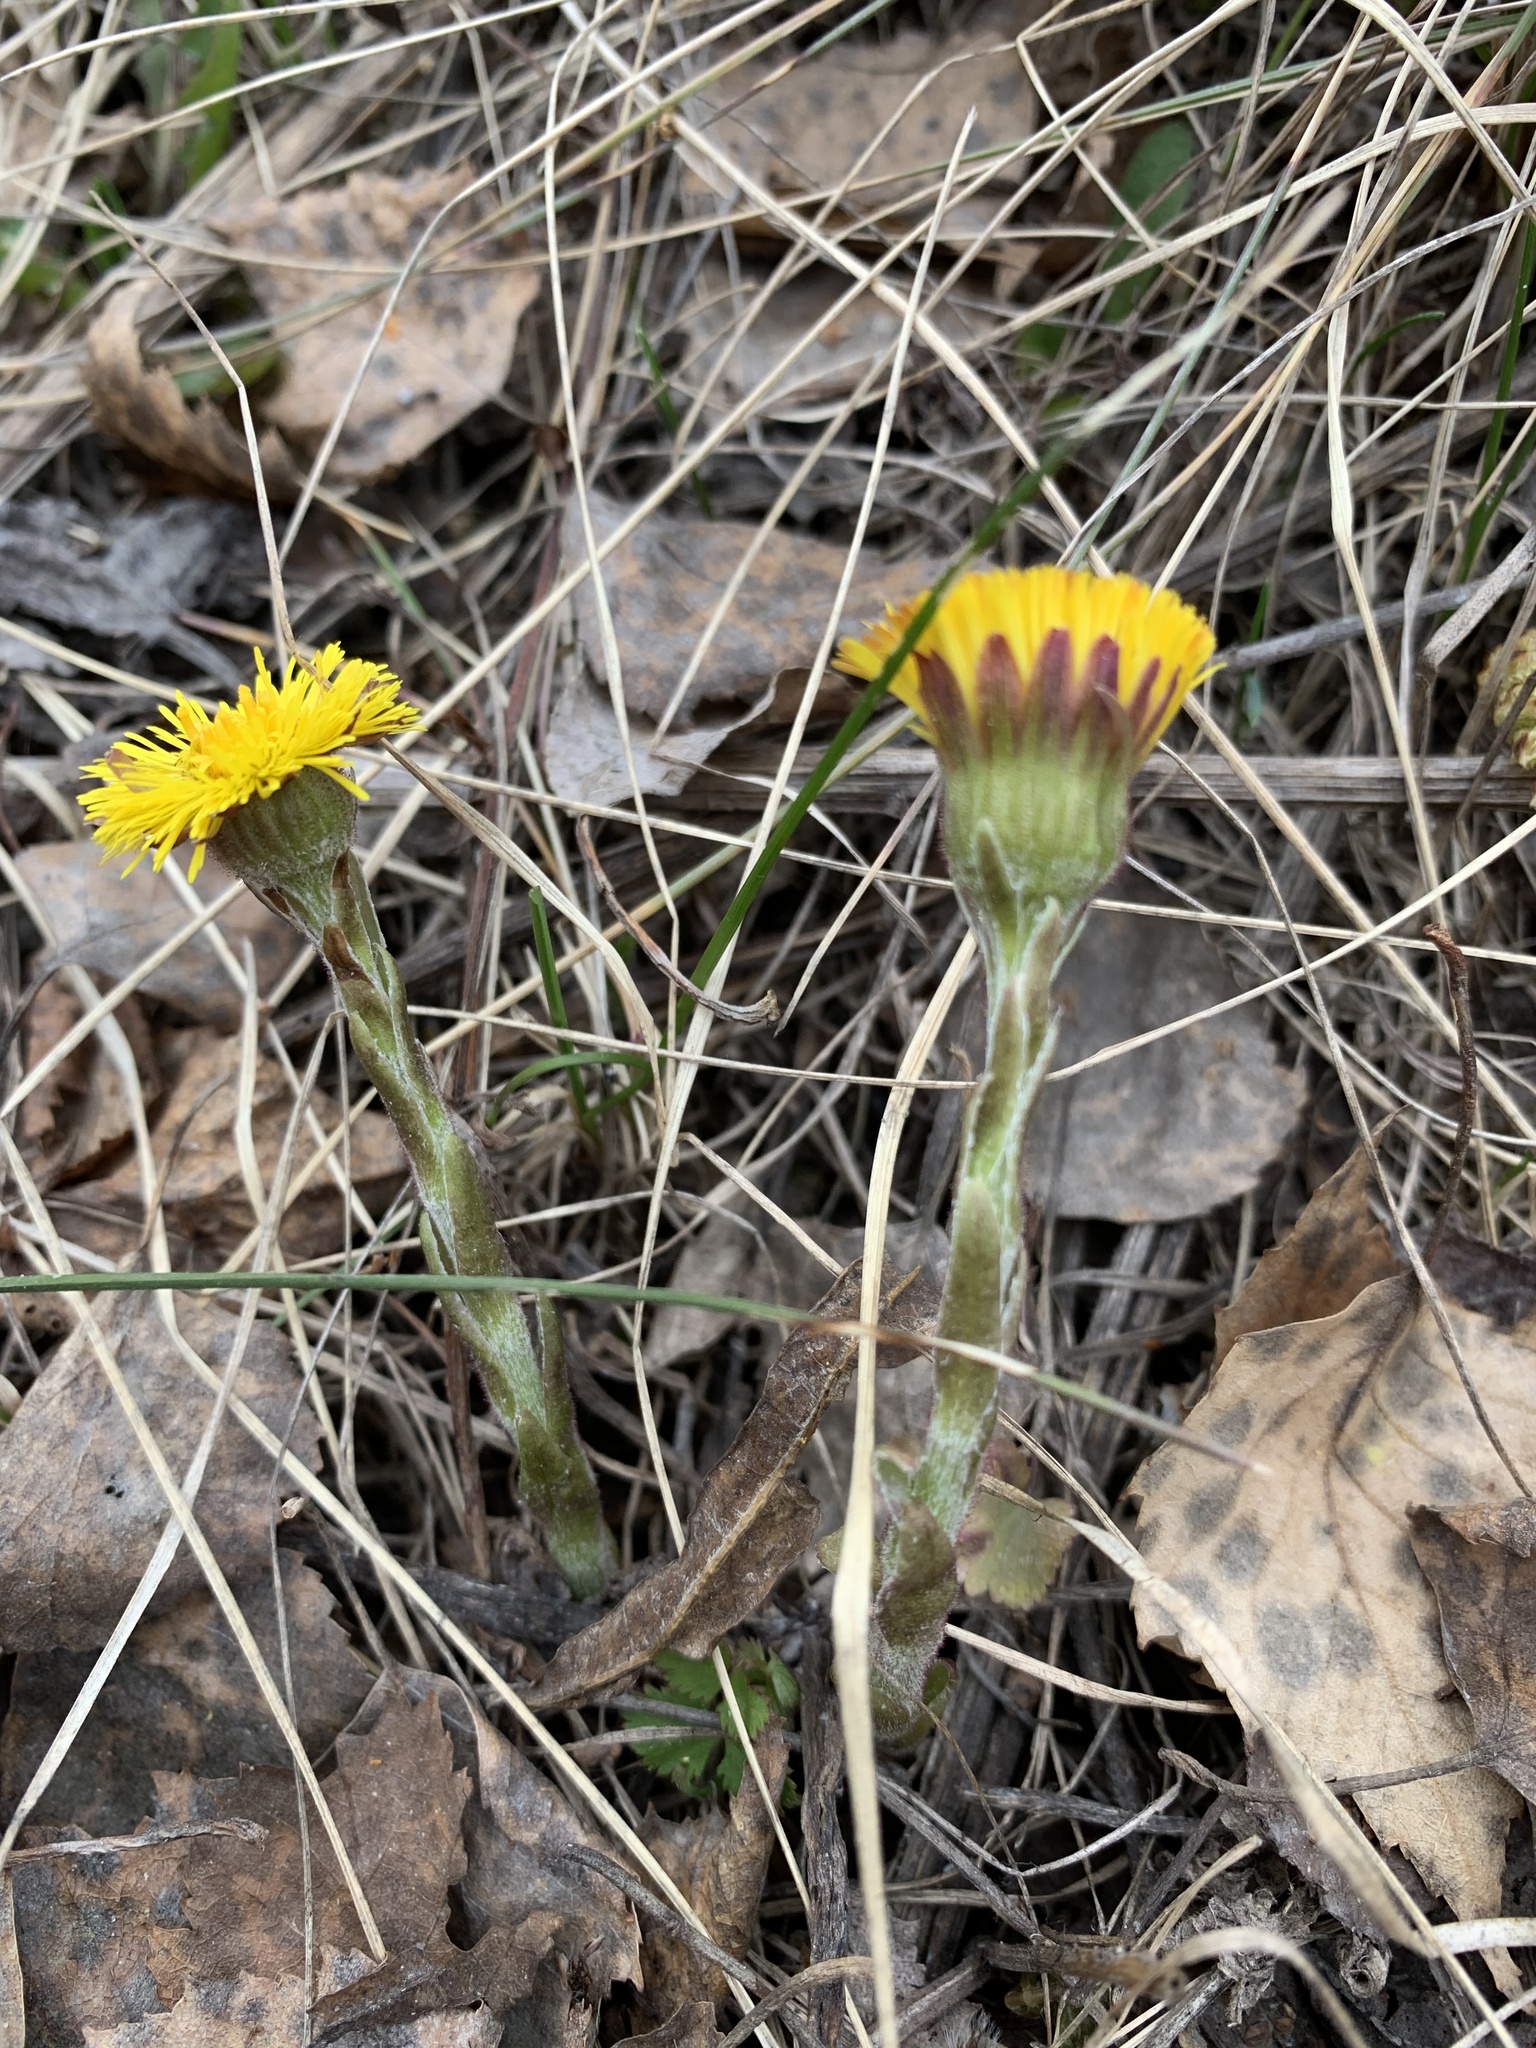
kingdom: Plantae
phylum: Tracheophyta
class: Magnoliopsida
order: Asterales
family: Asteraceae
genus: Tussilago
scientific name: Tussilago farfara
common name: Coltsfoot
